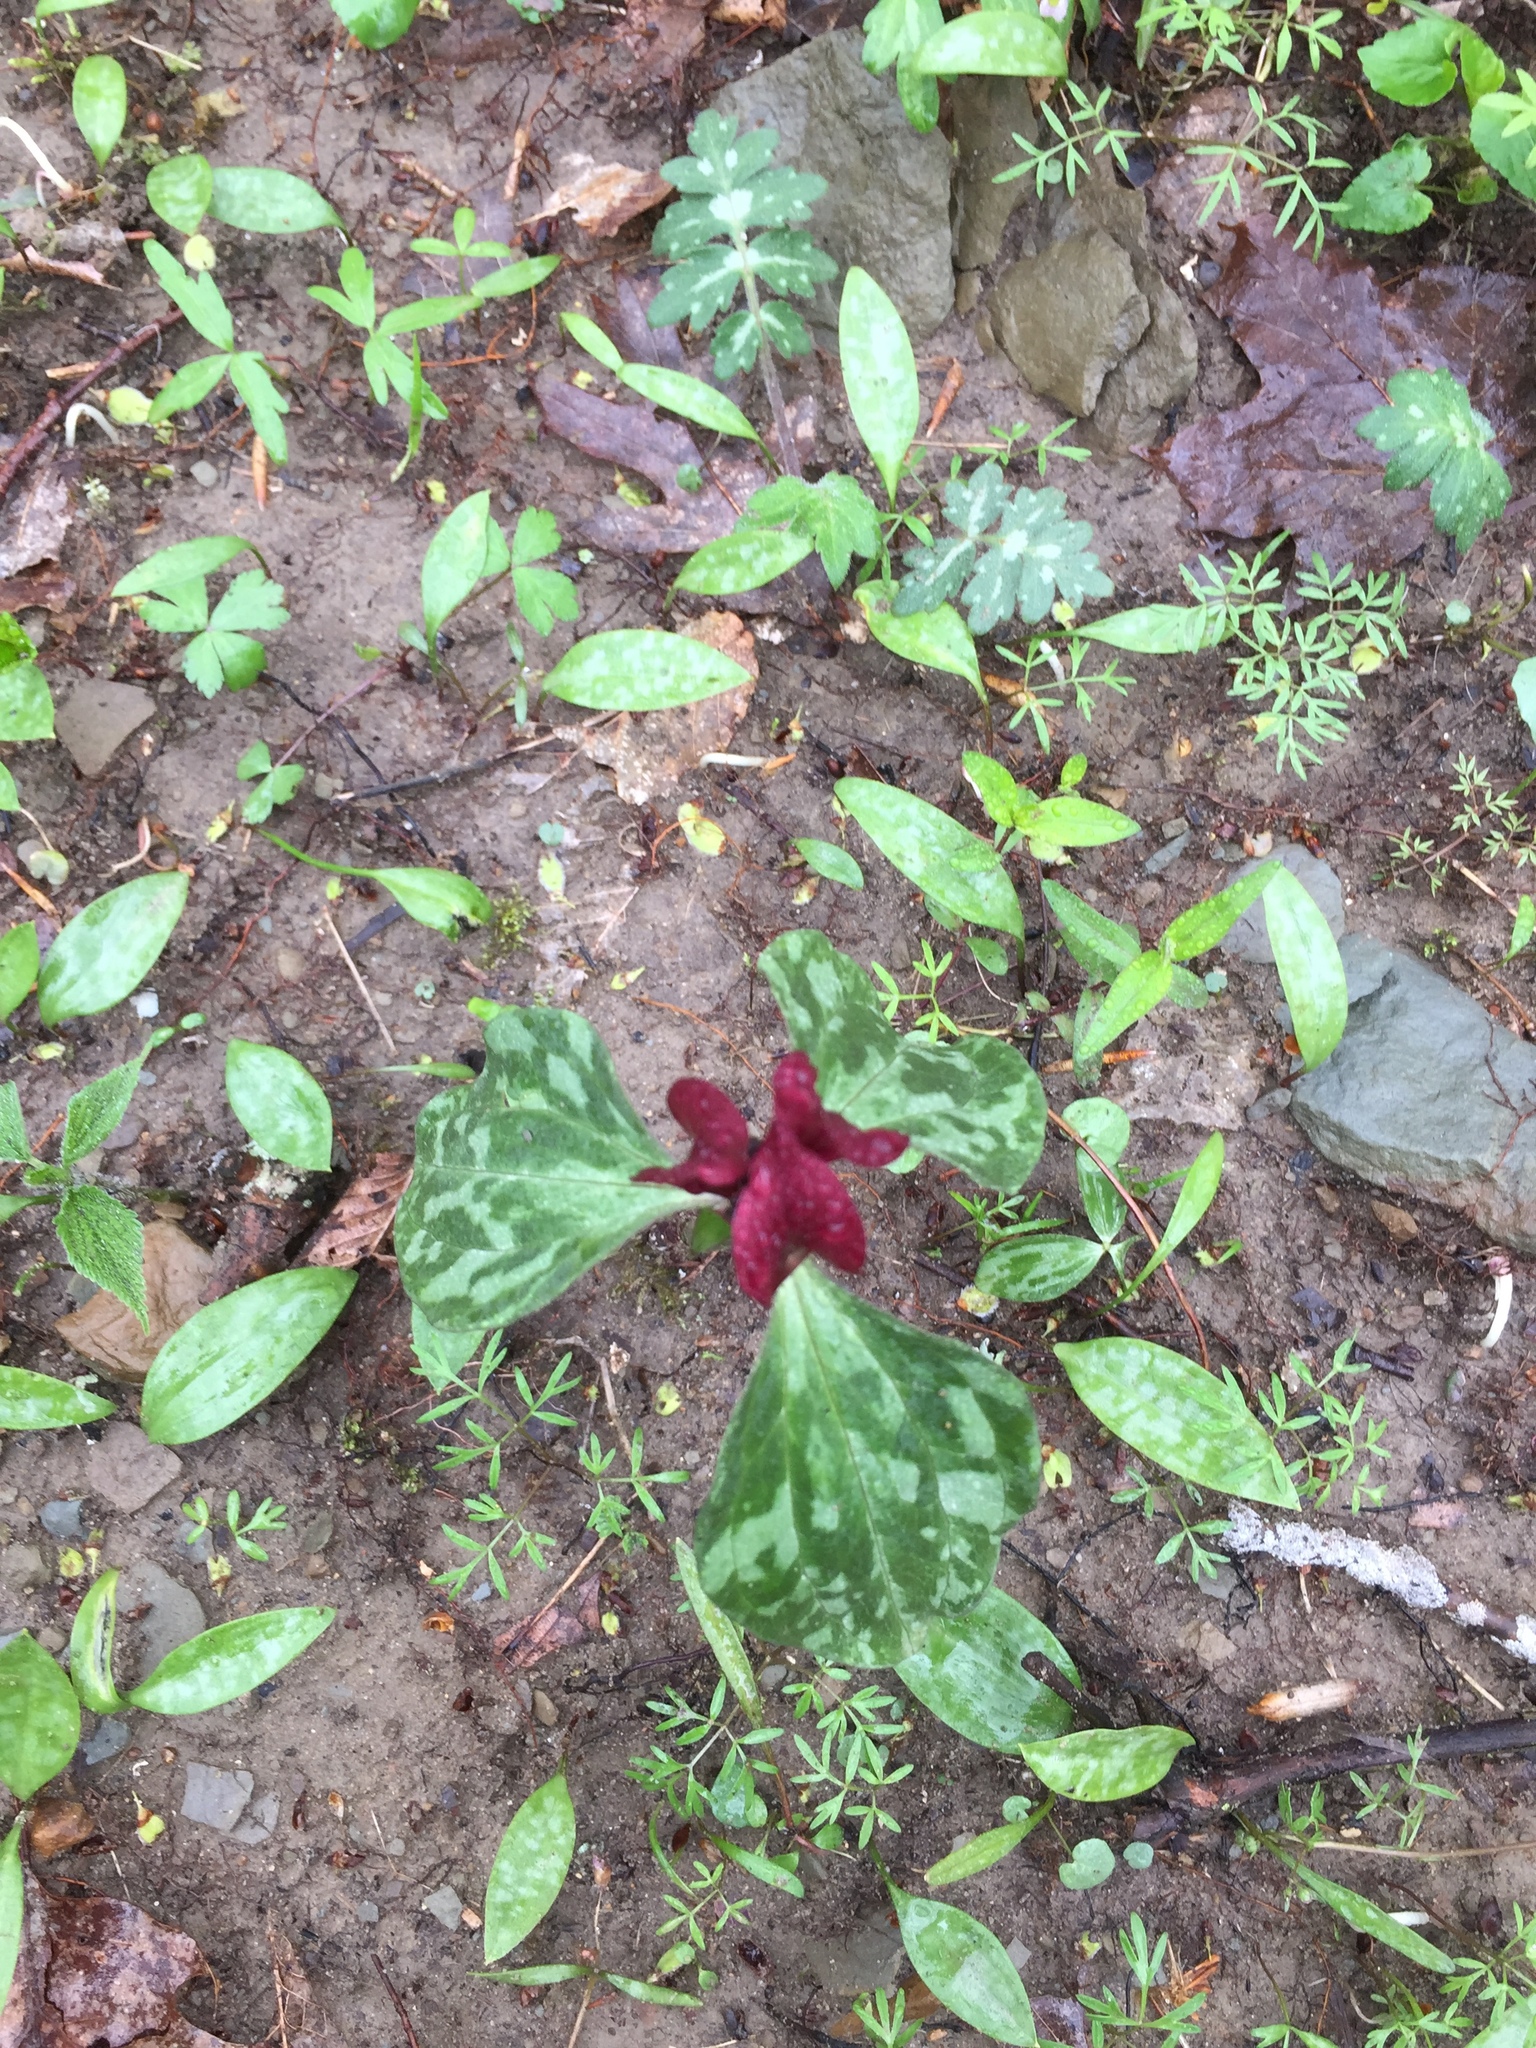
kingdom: Plantae
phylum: Tracheophyta
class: Liliopsida
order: Liliales
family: Melanthiaceae
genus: Trillium
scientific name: Trillium recurvatum
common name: Bloody butcher
